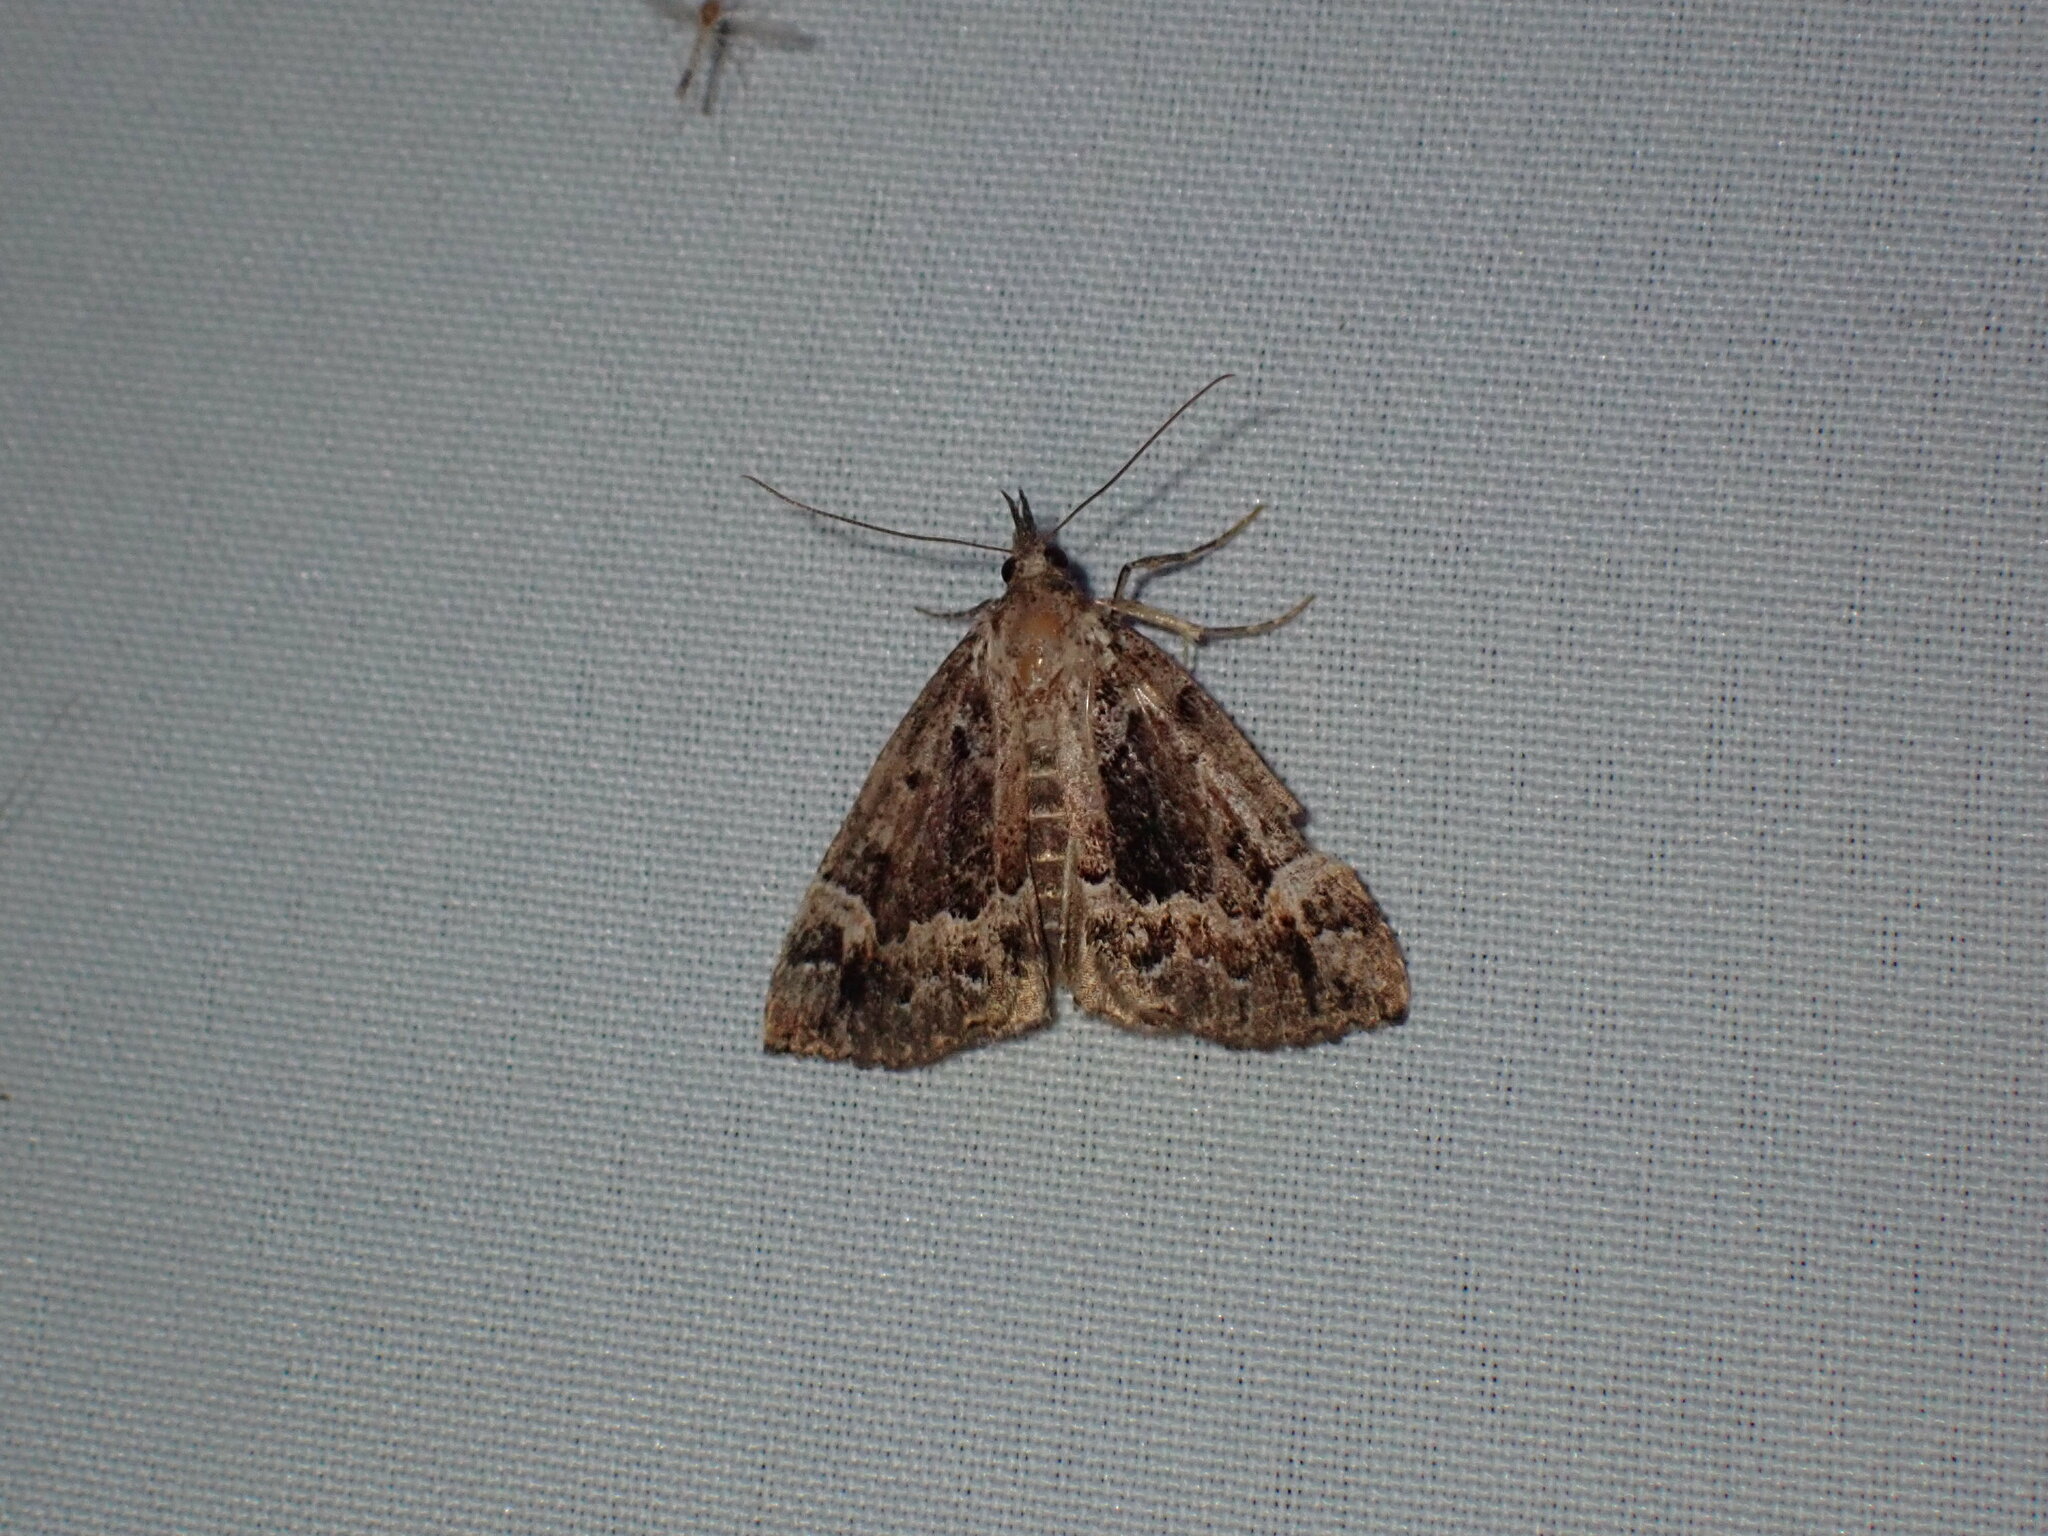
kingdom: Animalia
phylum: Arthropoda
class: Insecta
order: Lepidoptera
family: Erebidae
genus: Hypena
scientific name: Hypena palparia
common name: Mottled bomolocha moth
